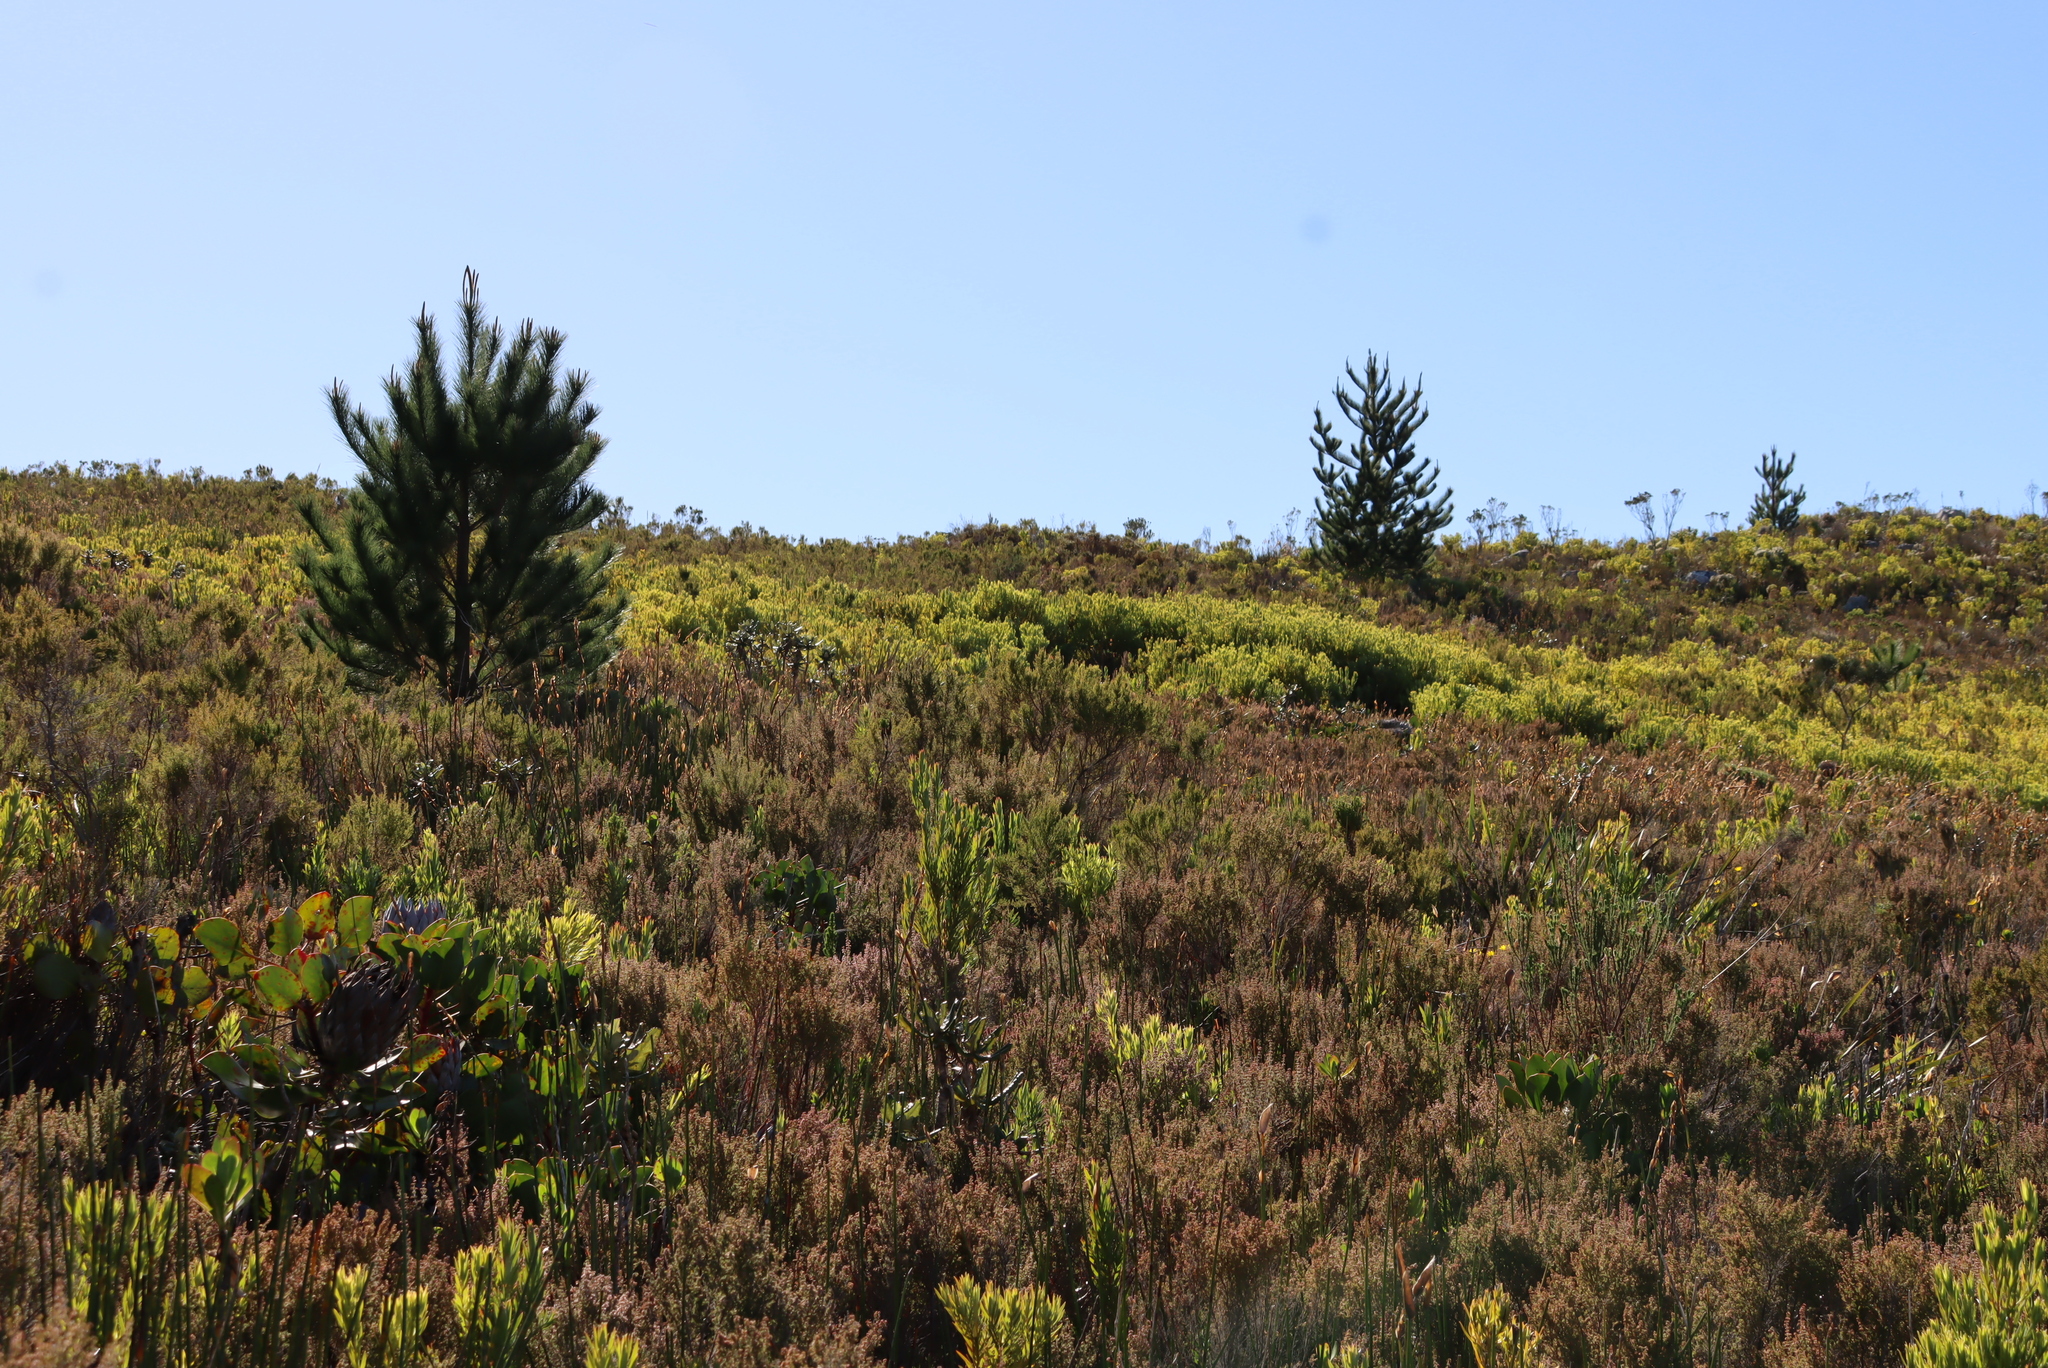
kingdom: Plantae
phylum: Tracheophyta
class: Pinopsida
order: Pinales
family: Pinaceae
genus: Pinus
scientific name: Pinus radiata
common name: Monterey pine
